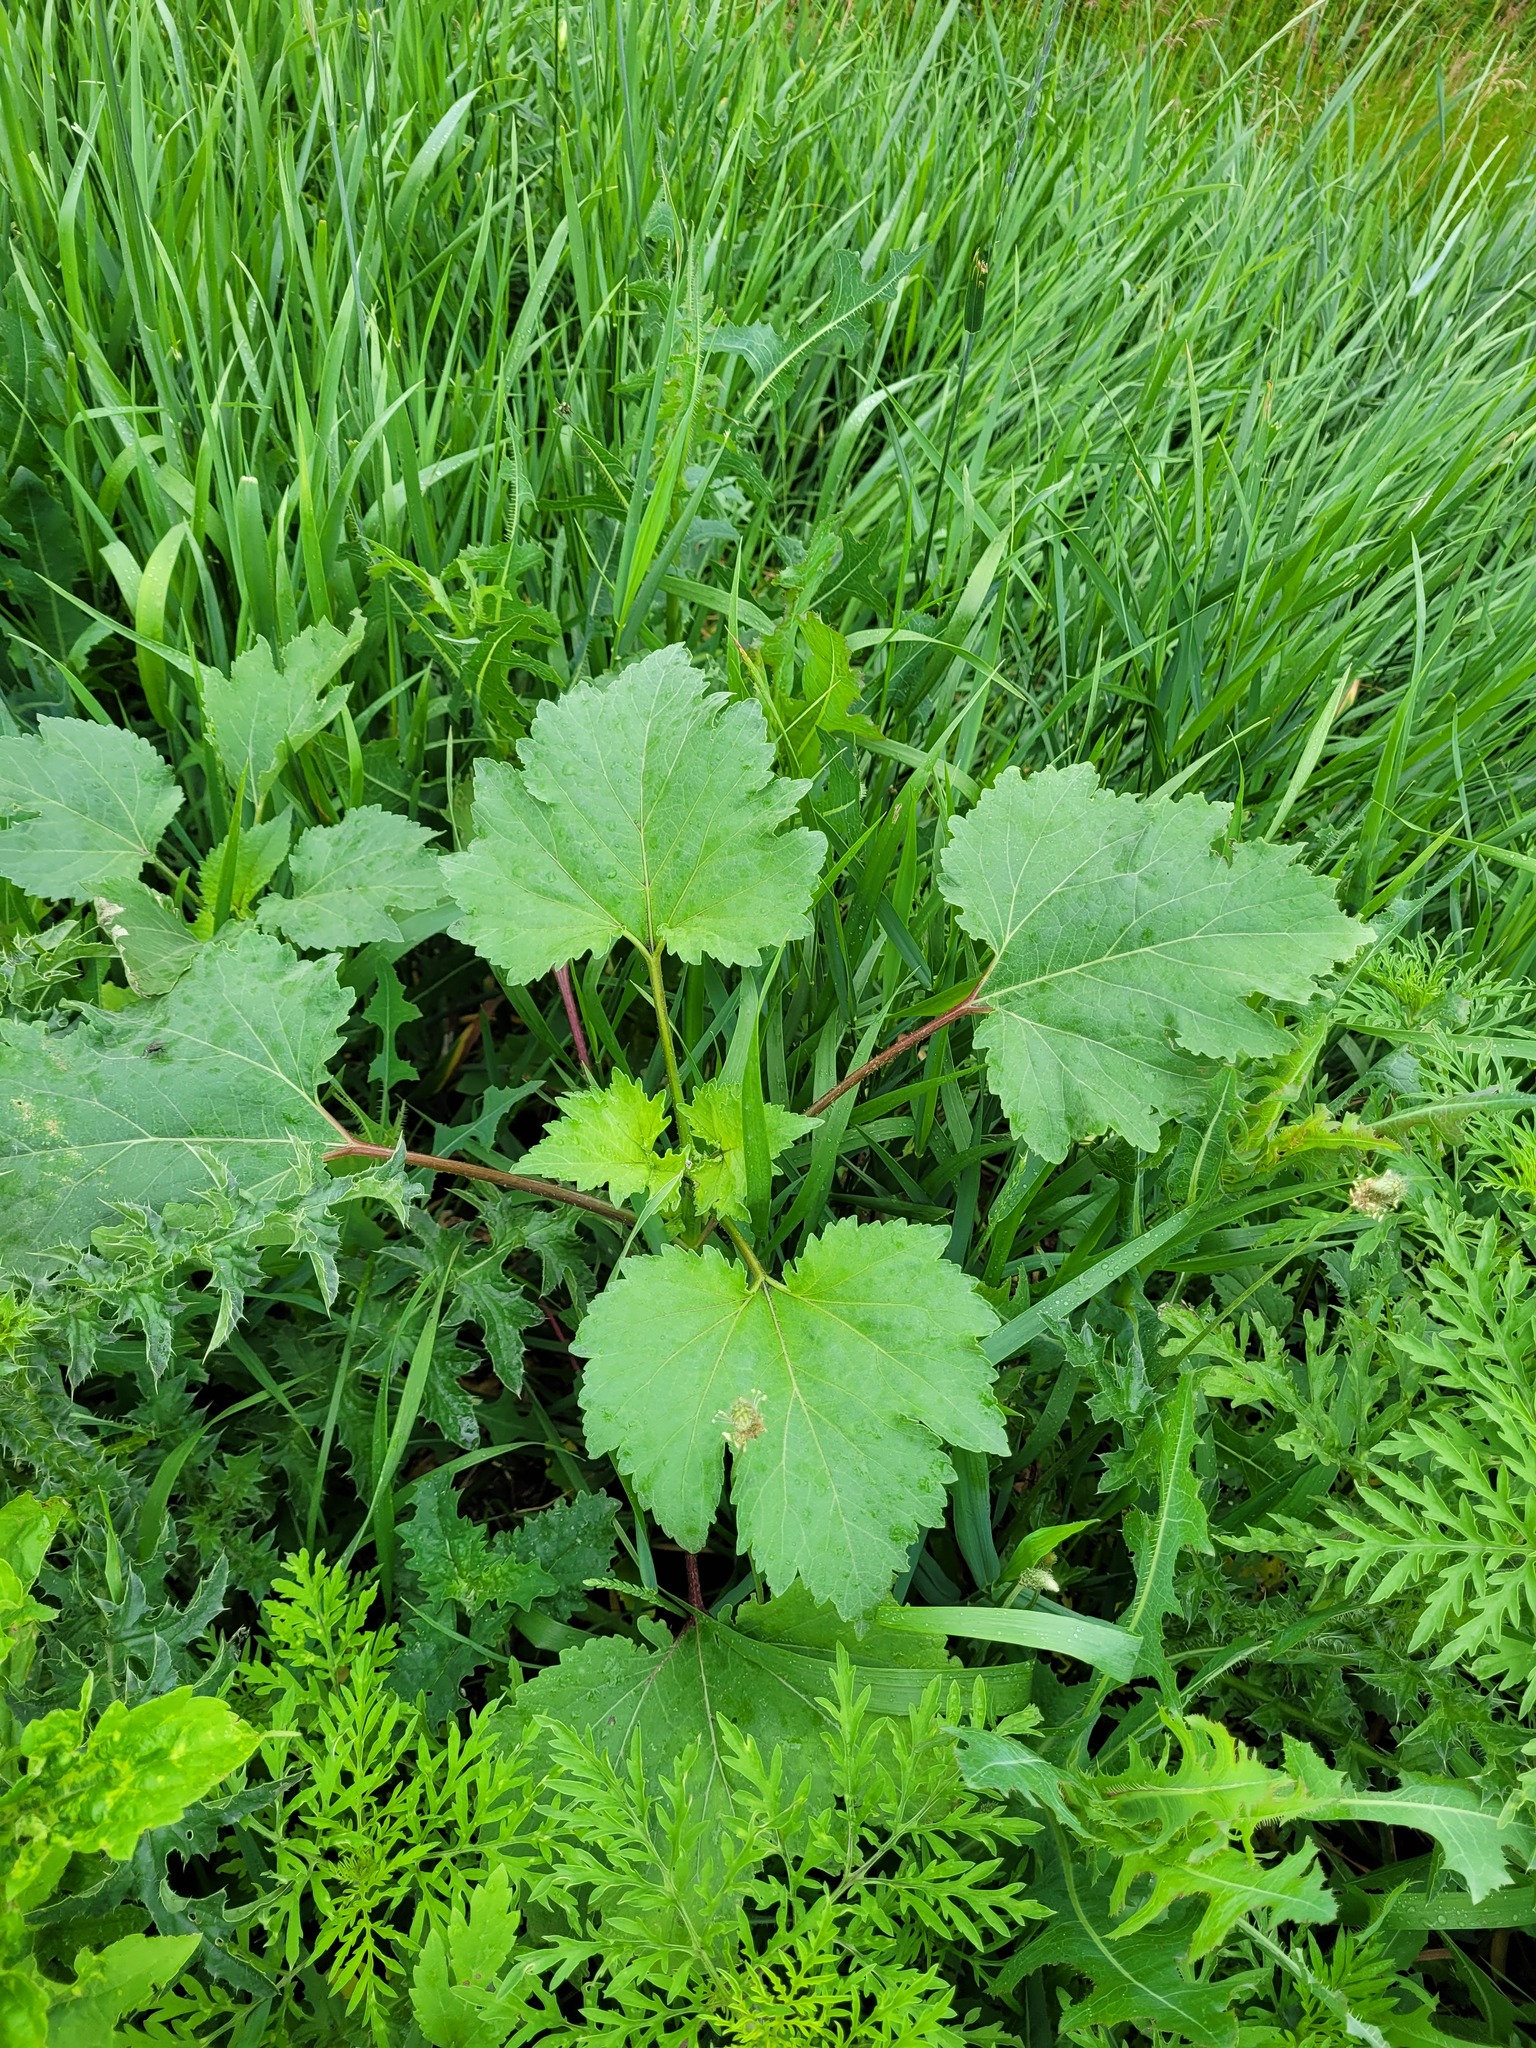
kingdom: Plantae
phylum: Tracheophyta
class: Magnoliopsida
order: Asterales
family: Asteraceae
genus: Cyclachaena
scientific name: Cyclachaena xanthiifolia
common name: Giant sumpweed
